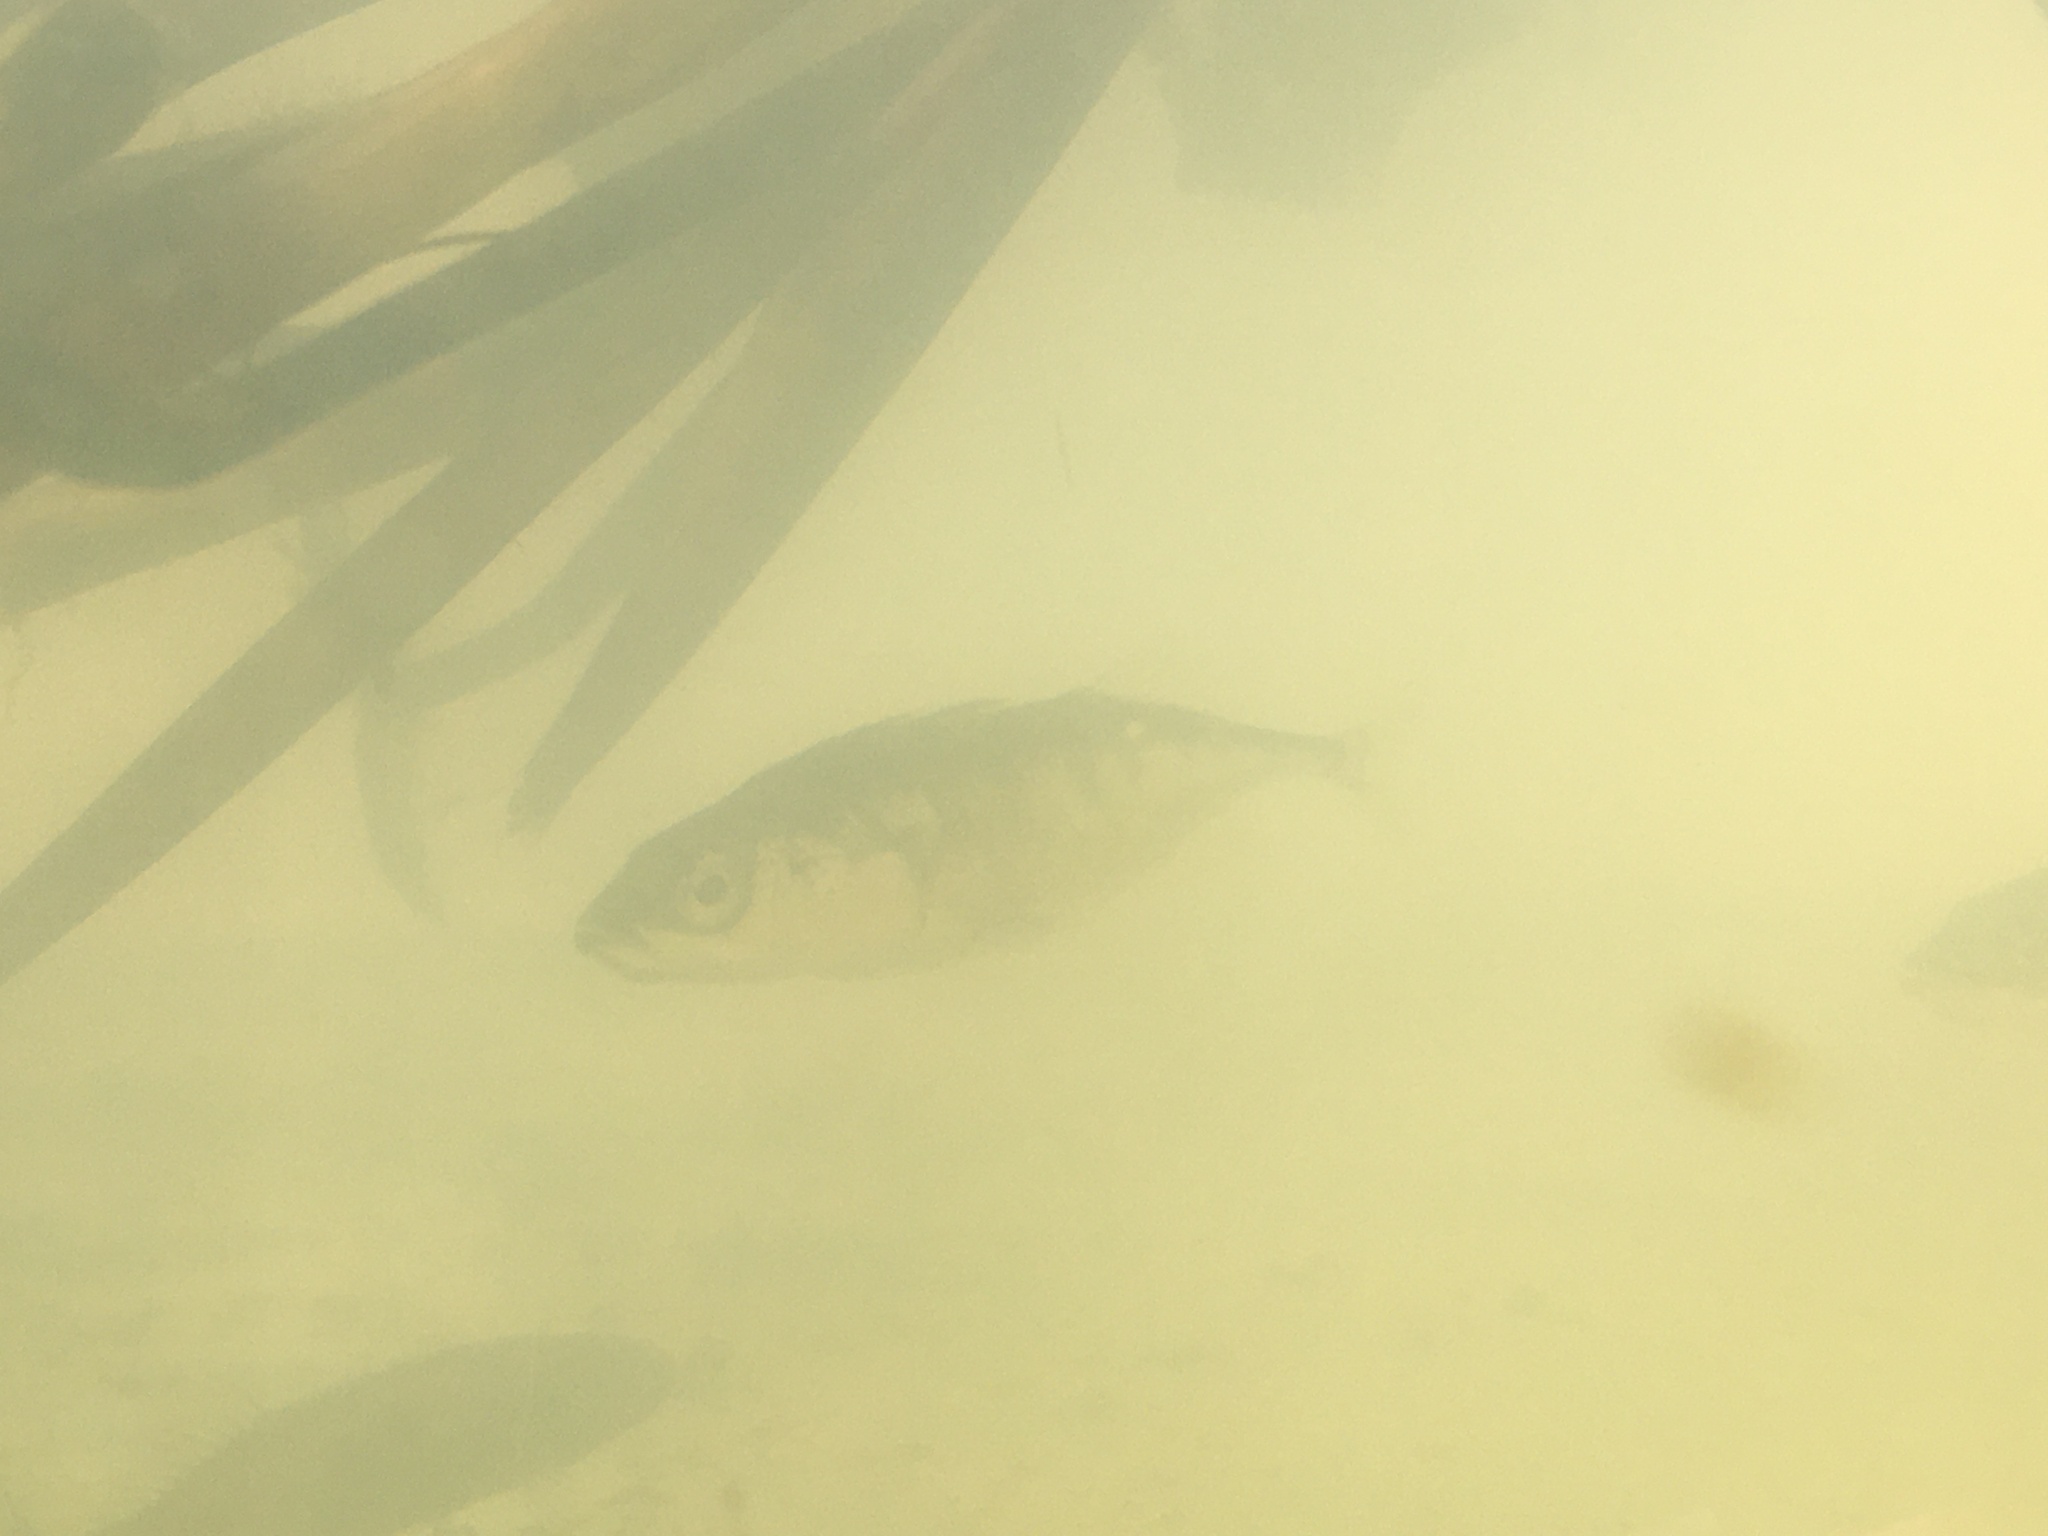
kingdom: Animalia
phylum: Chordata
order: Gasterosteiformes
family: Gasterosteidae
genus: Gasterosteus
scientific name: Gasterosteus aculeatus
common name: Three-spined stickleback
